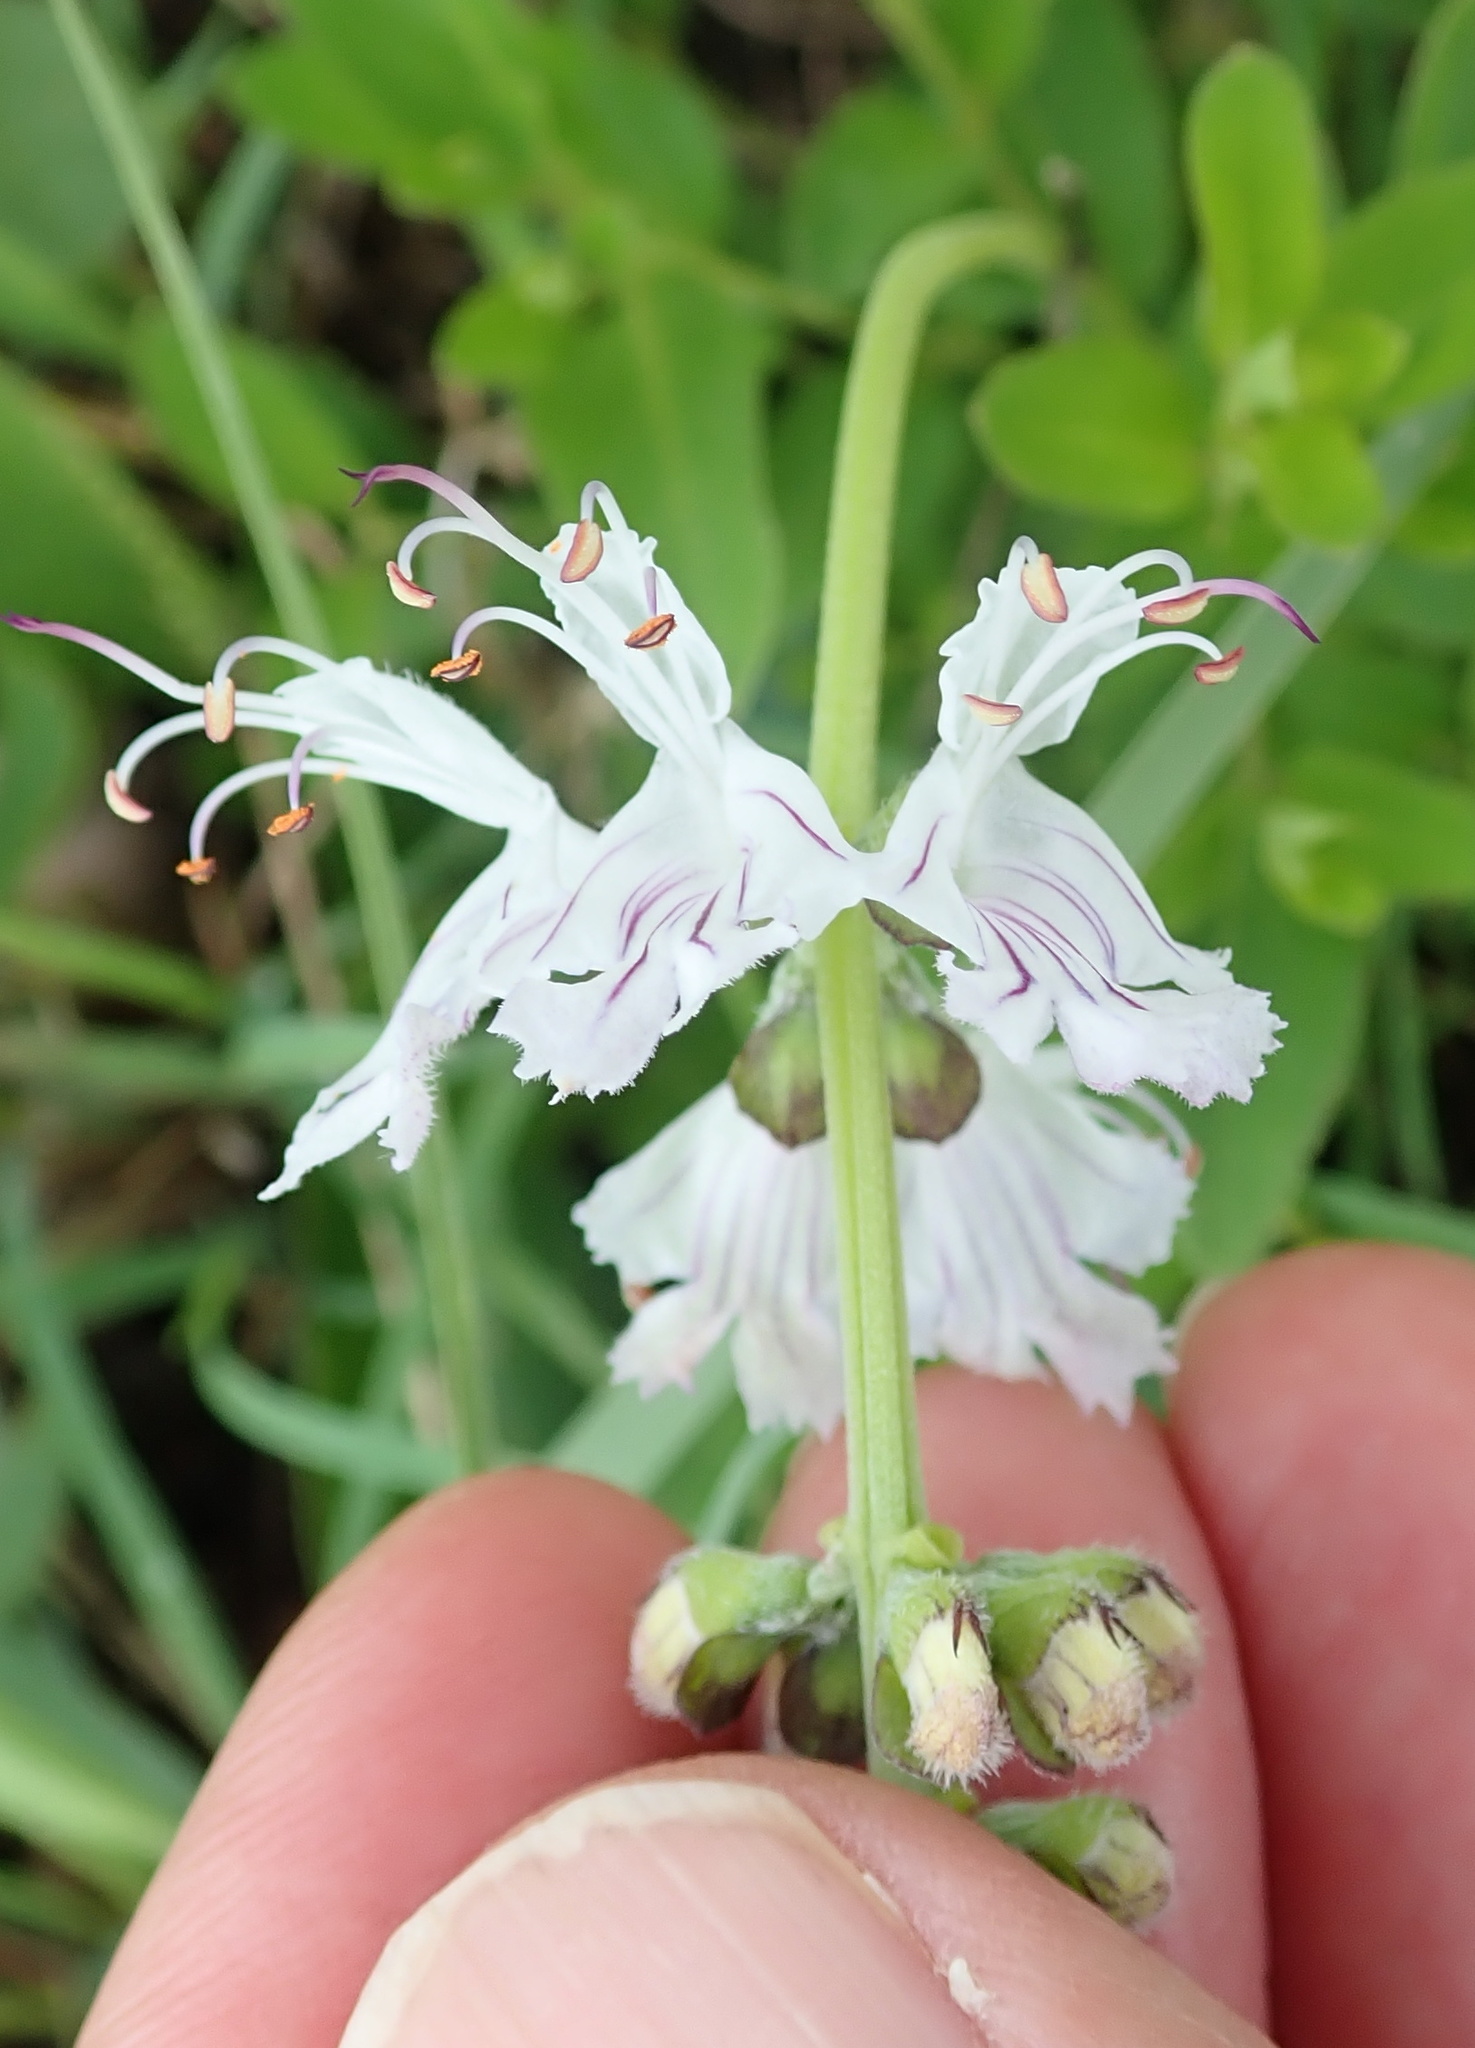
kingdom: Plantae
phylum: Tracheophyta
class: Magnoliopsida
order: Lamiales
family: Lamiaceae
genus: Ocimum
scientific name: Ocimum obovatum
